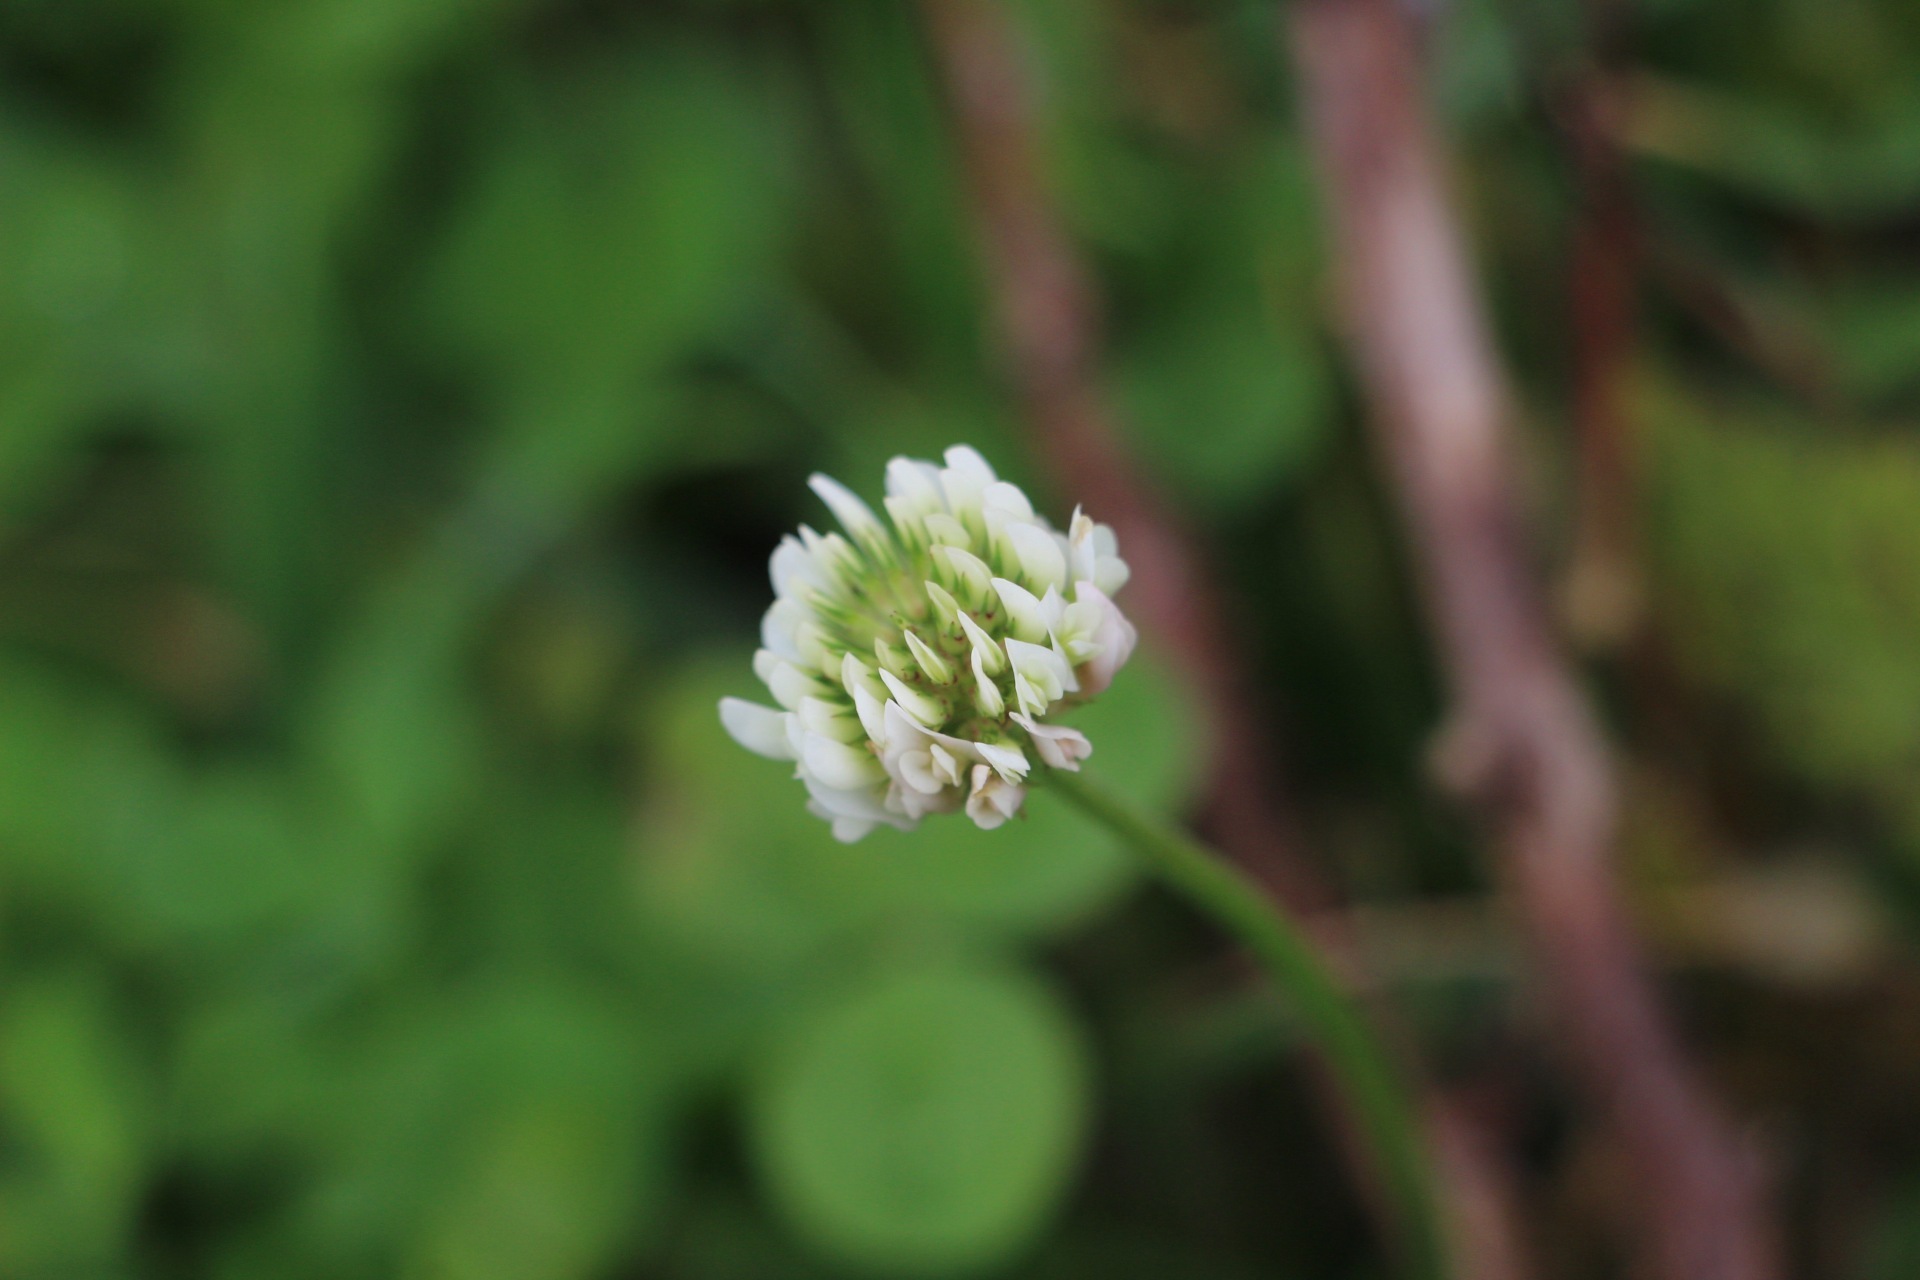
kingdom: Plantae
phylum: Tracheophyta
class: Magnoliopsida
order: Fabales
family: Fabaceae
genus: Trifolium
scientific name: Trifolium repens
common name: White clover
